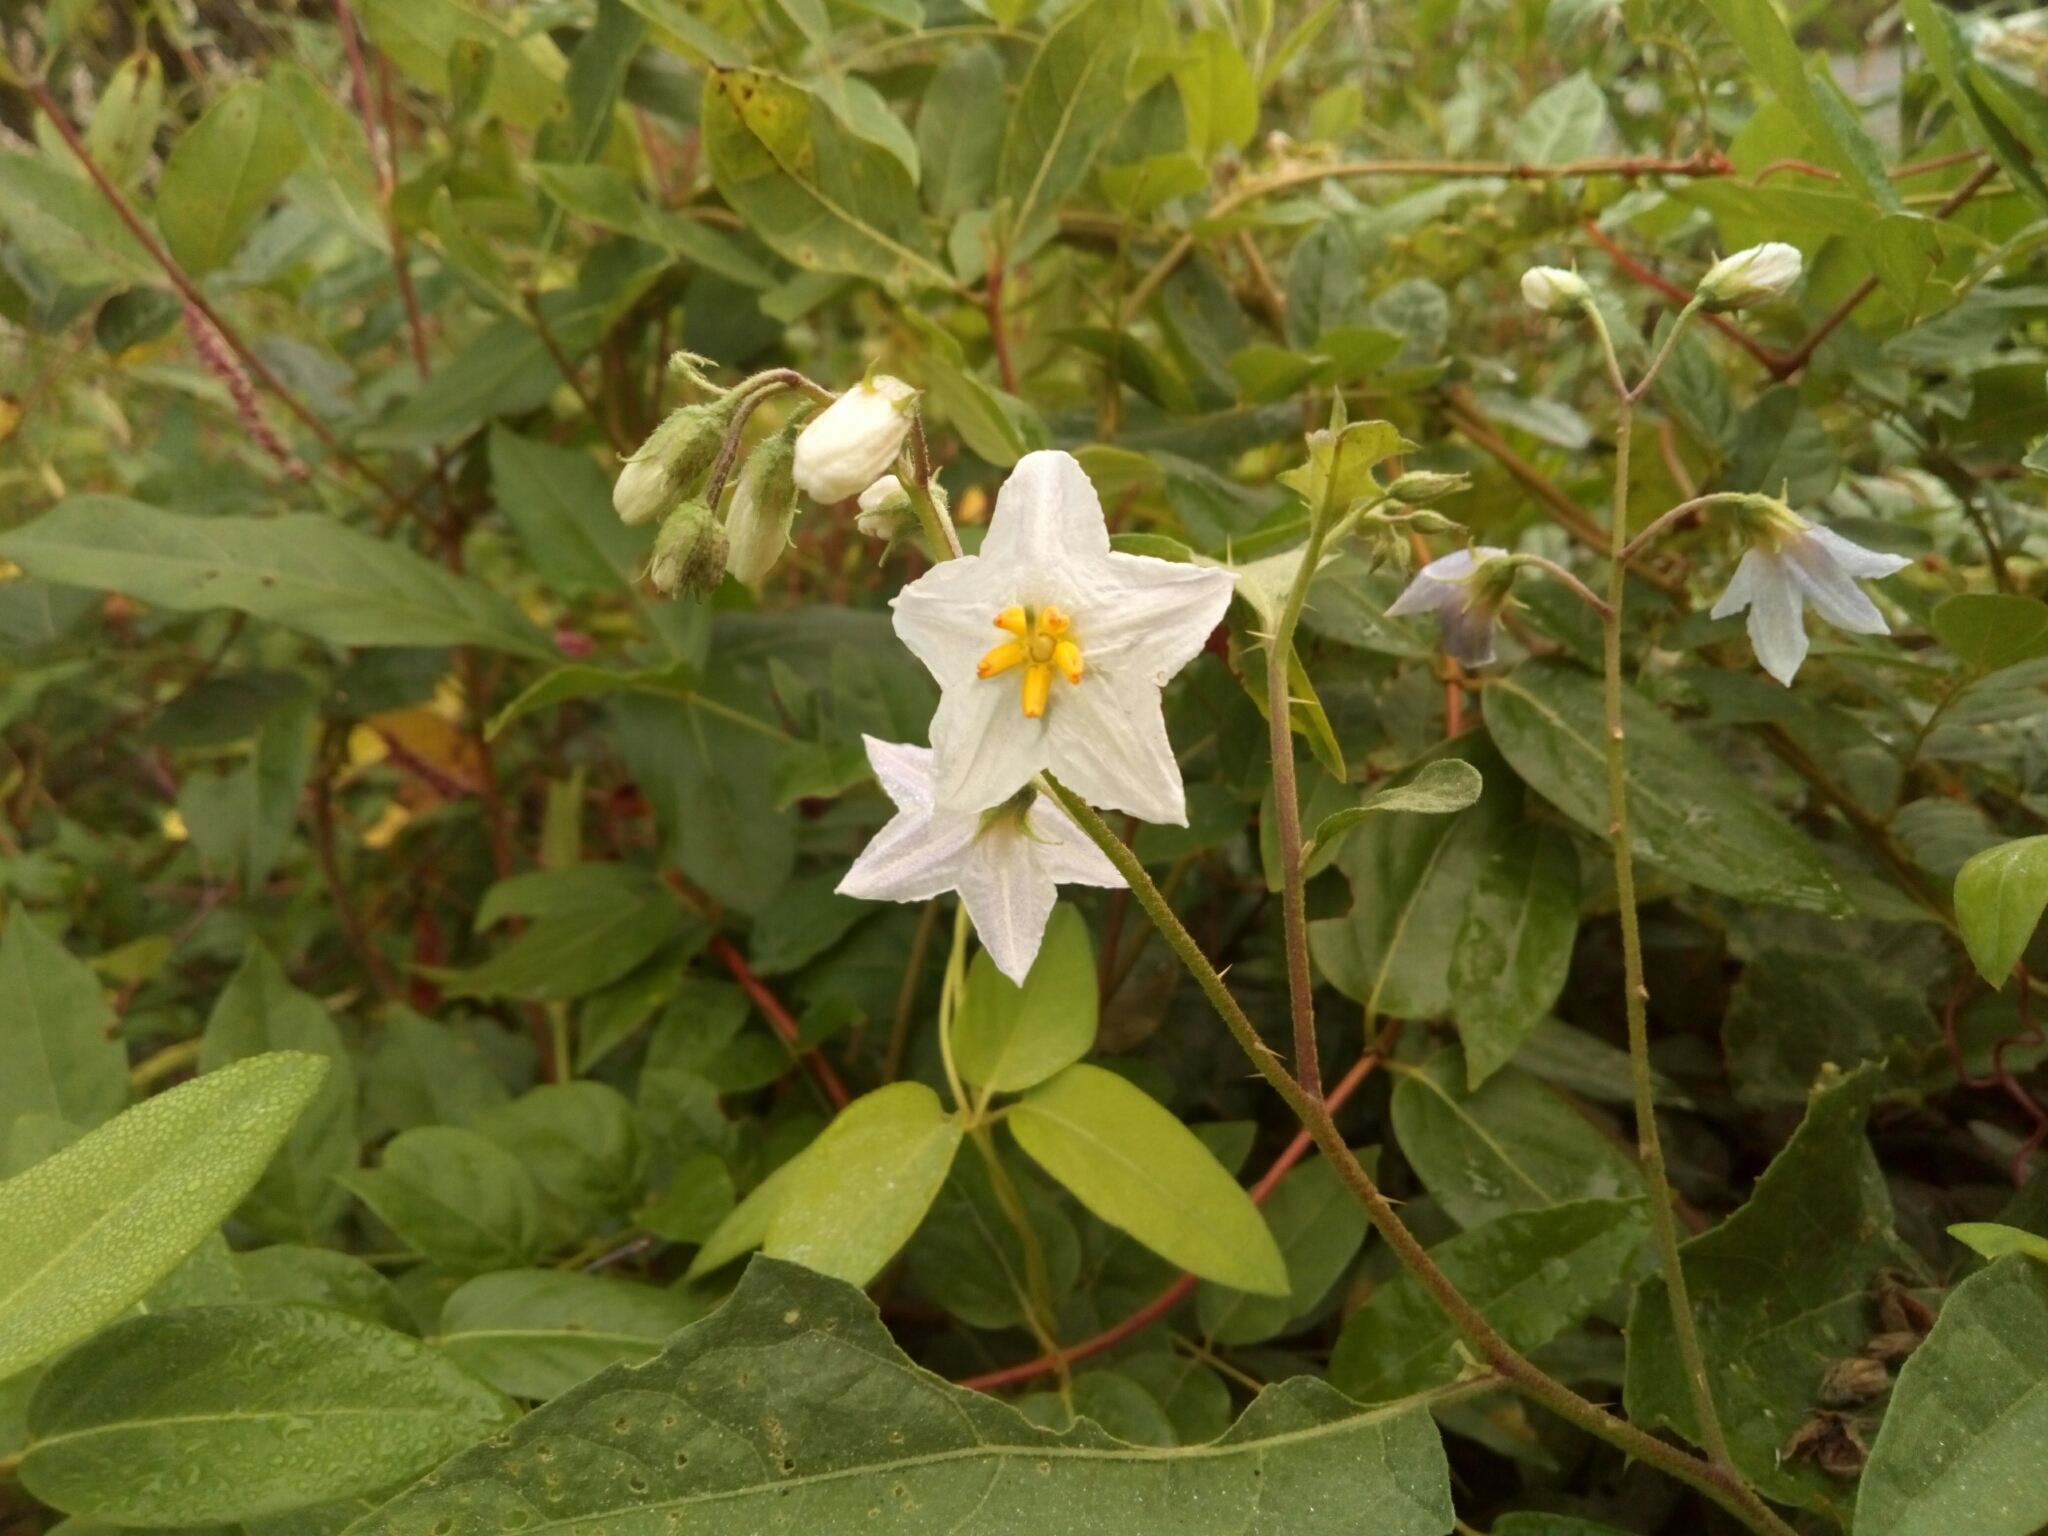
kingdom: Plantae
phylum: Tracheophyta
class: Magnoliopsida
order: Solanales
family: Solanaceae
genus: Solanum
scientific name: Solanum carolinense
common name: Horse-nettle
